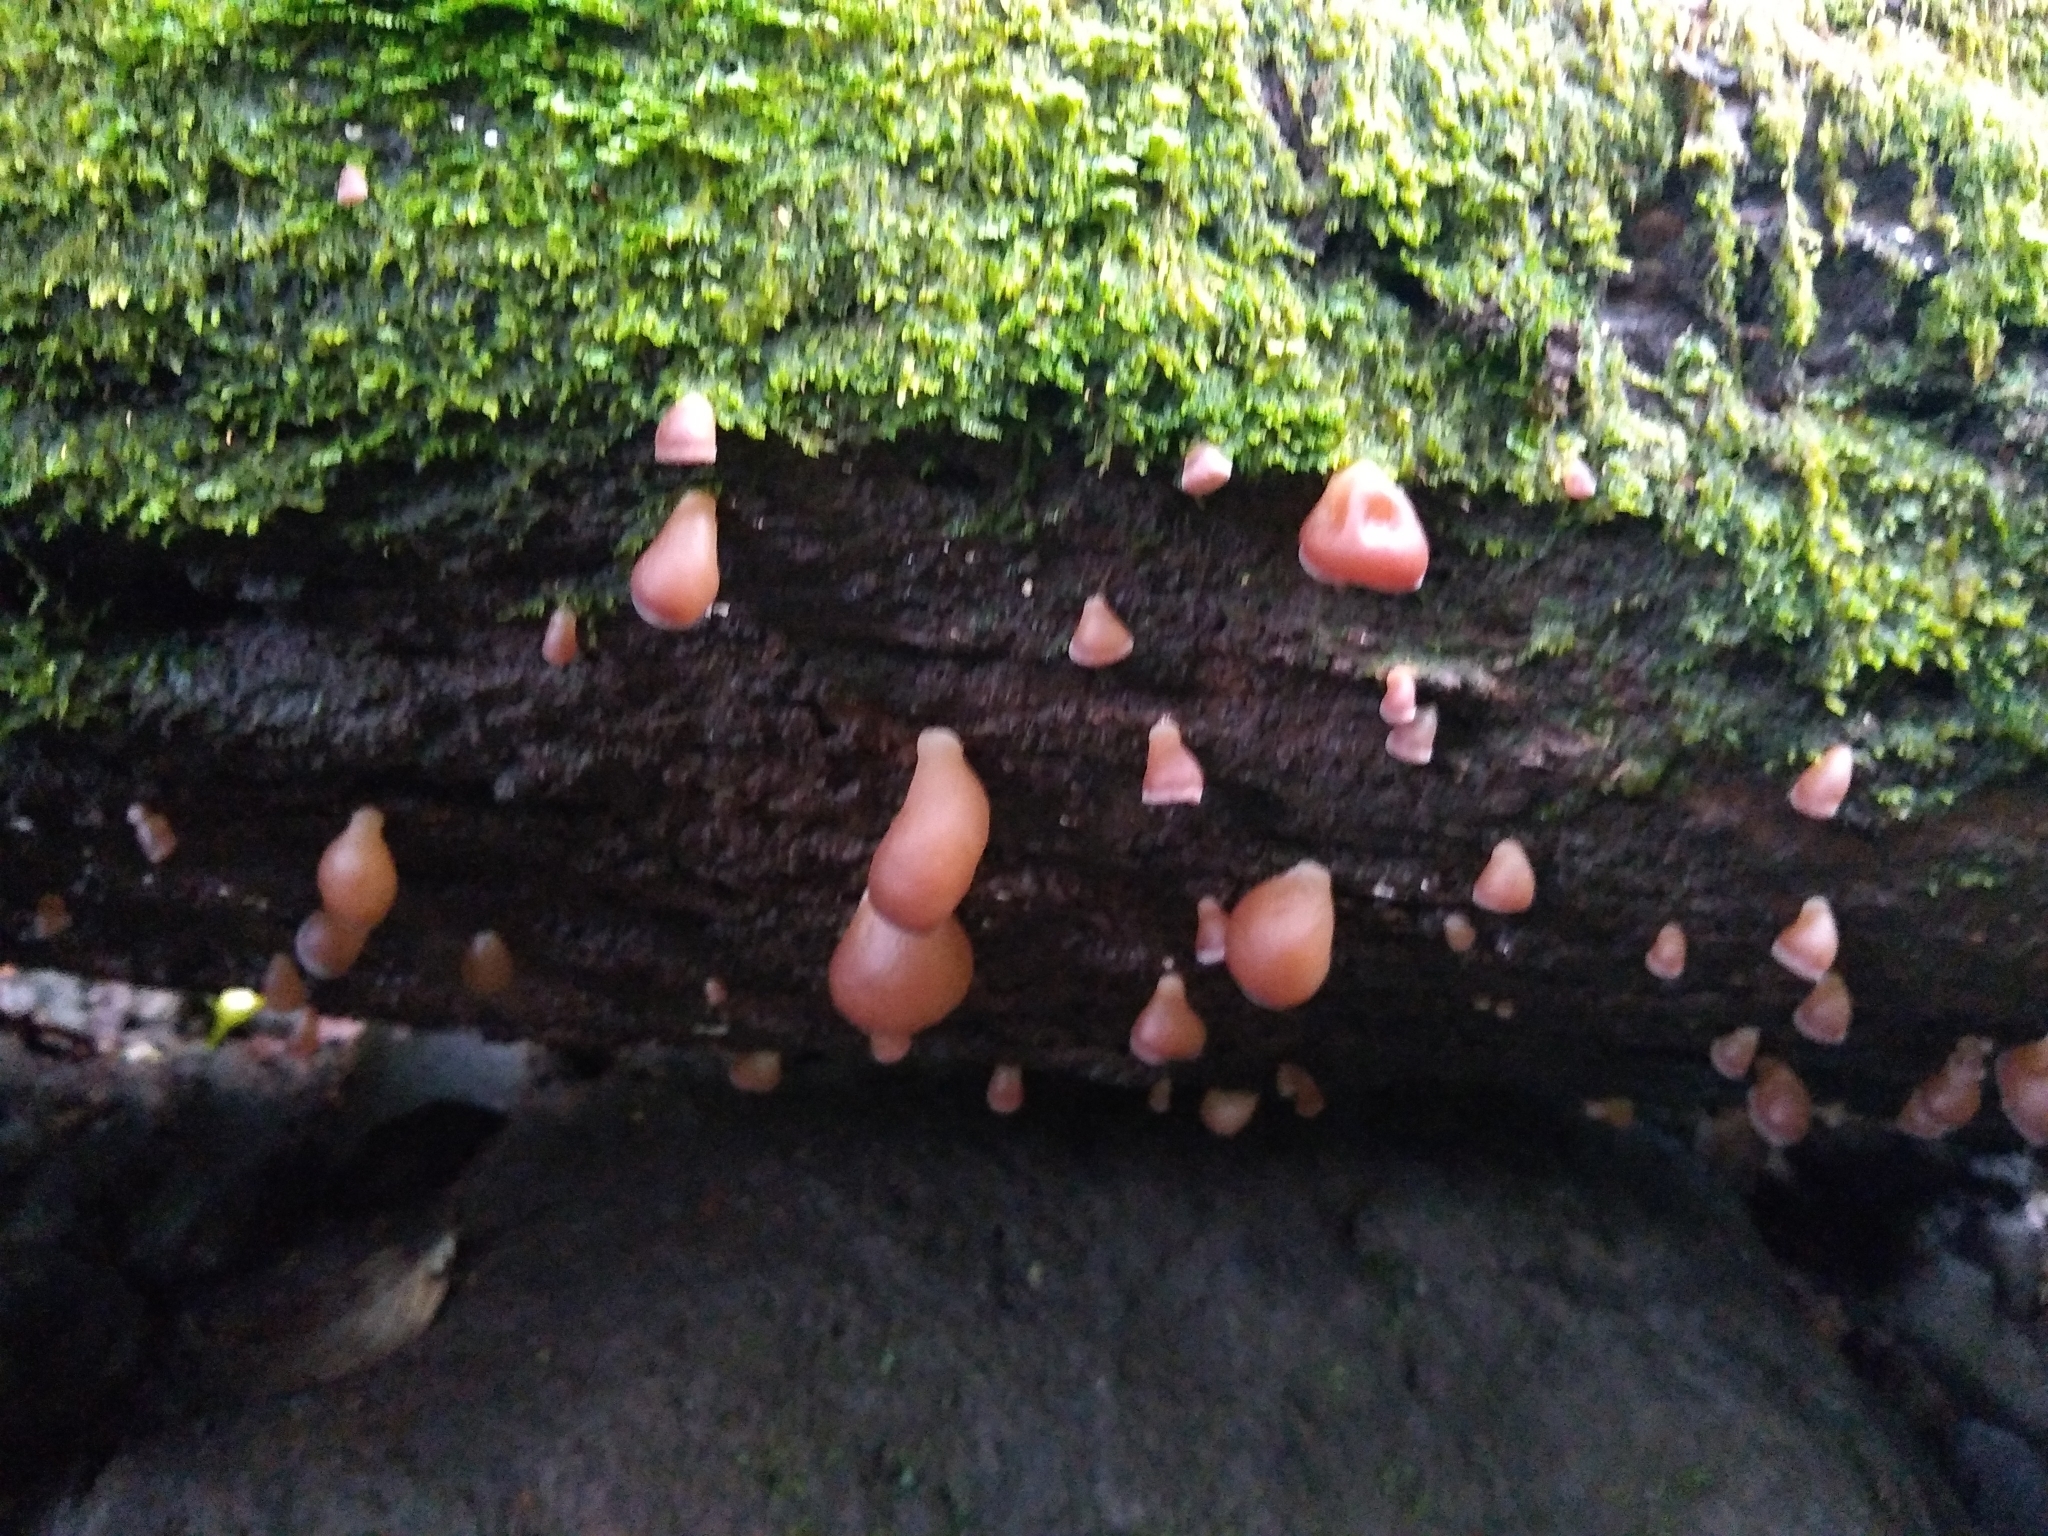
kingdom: Fungi
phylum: Basidiomycota
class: Dacrymycetes
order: Dacrymycetales
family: Dacrymycetaceae
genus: Dacryopinax
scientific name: Dacryopinax elegans
